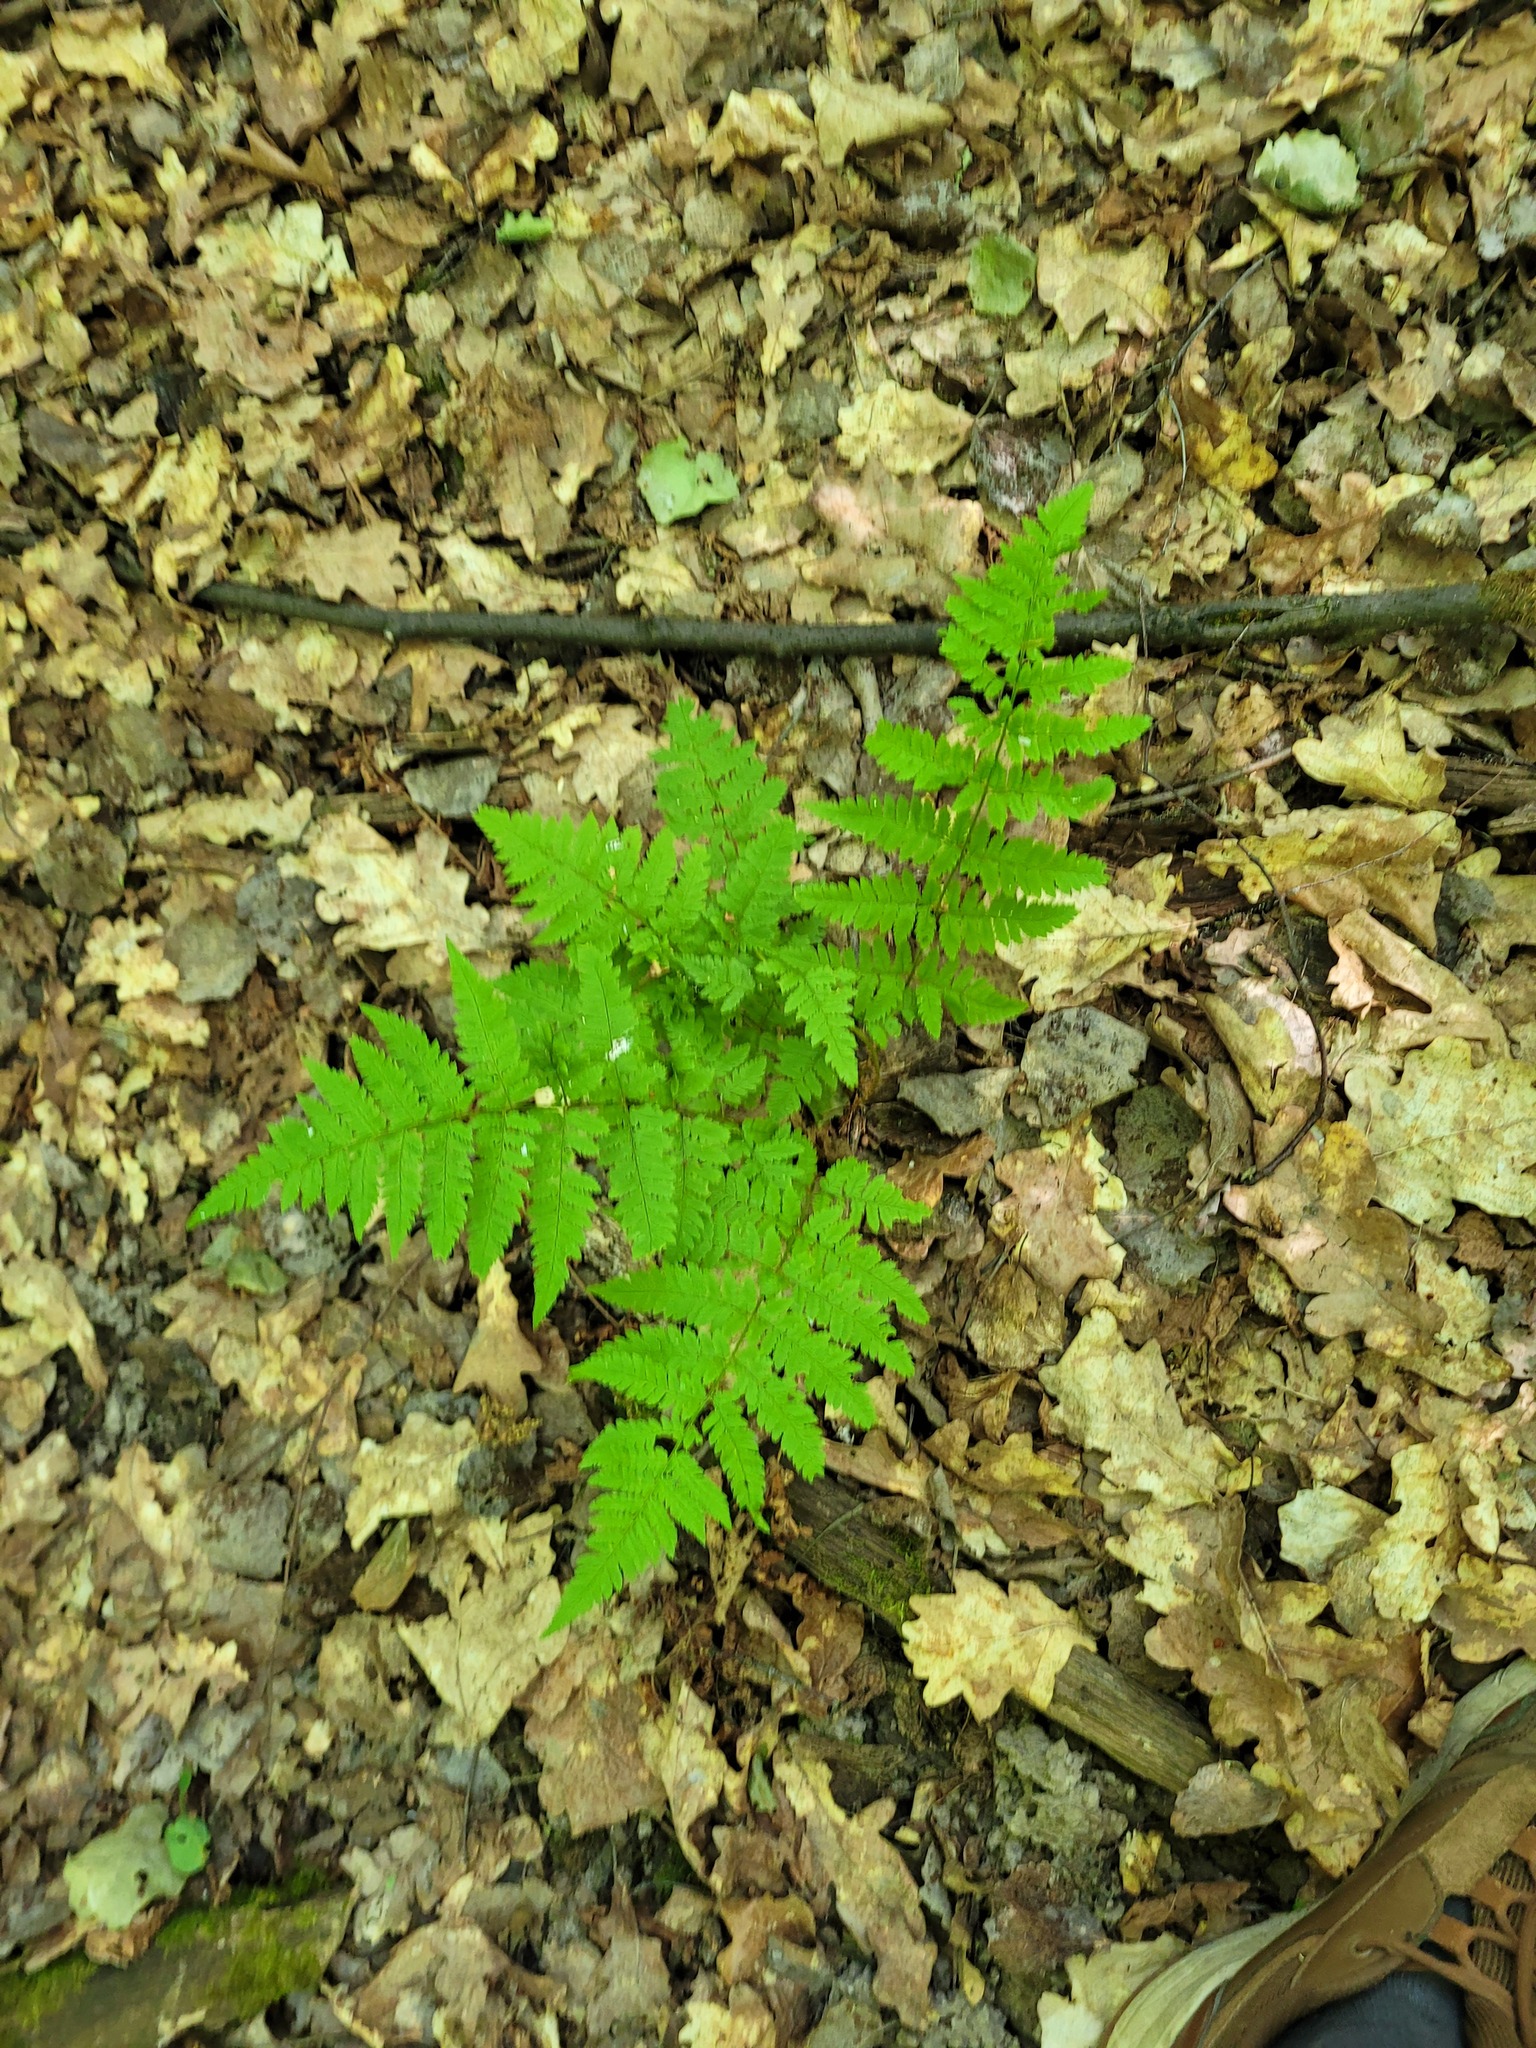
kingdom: Plantae
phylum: Tracheophyta
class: Polypodiopsida
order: Polypodiales
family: Dryopteridaceae
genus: Dryopteris
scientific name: Dryopteris carthusiana
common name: Narrow buckler-fern
